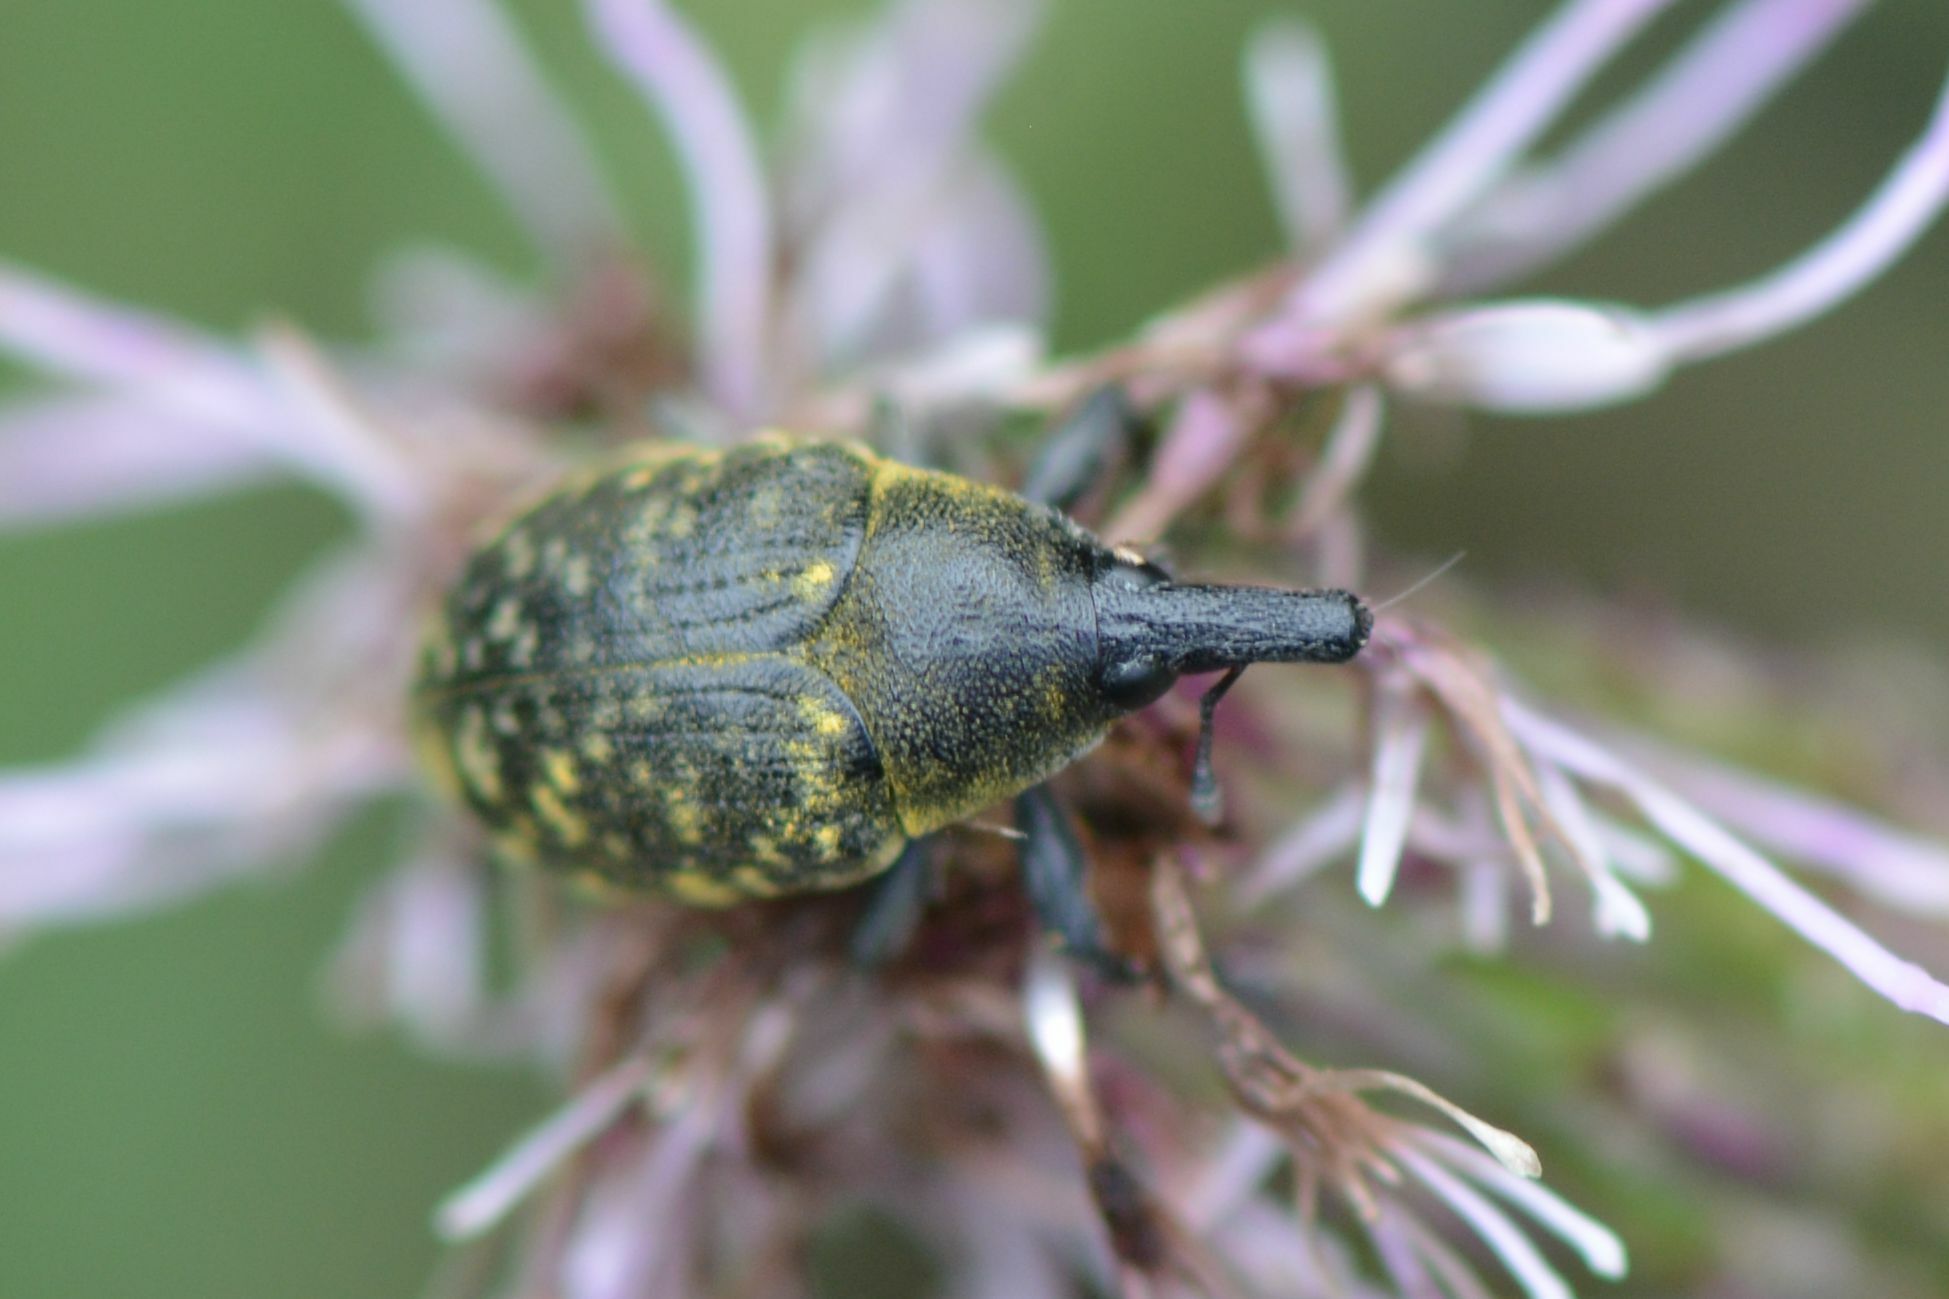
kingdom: Animalia
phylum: Arthropoda
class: Insecta
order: Coleoptera
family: Curculionidae
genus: Larinus
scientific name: Larinus turbinatus
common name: Weevil
